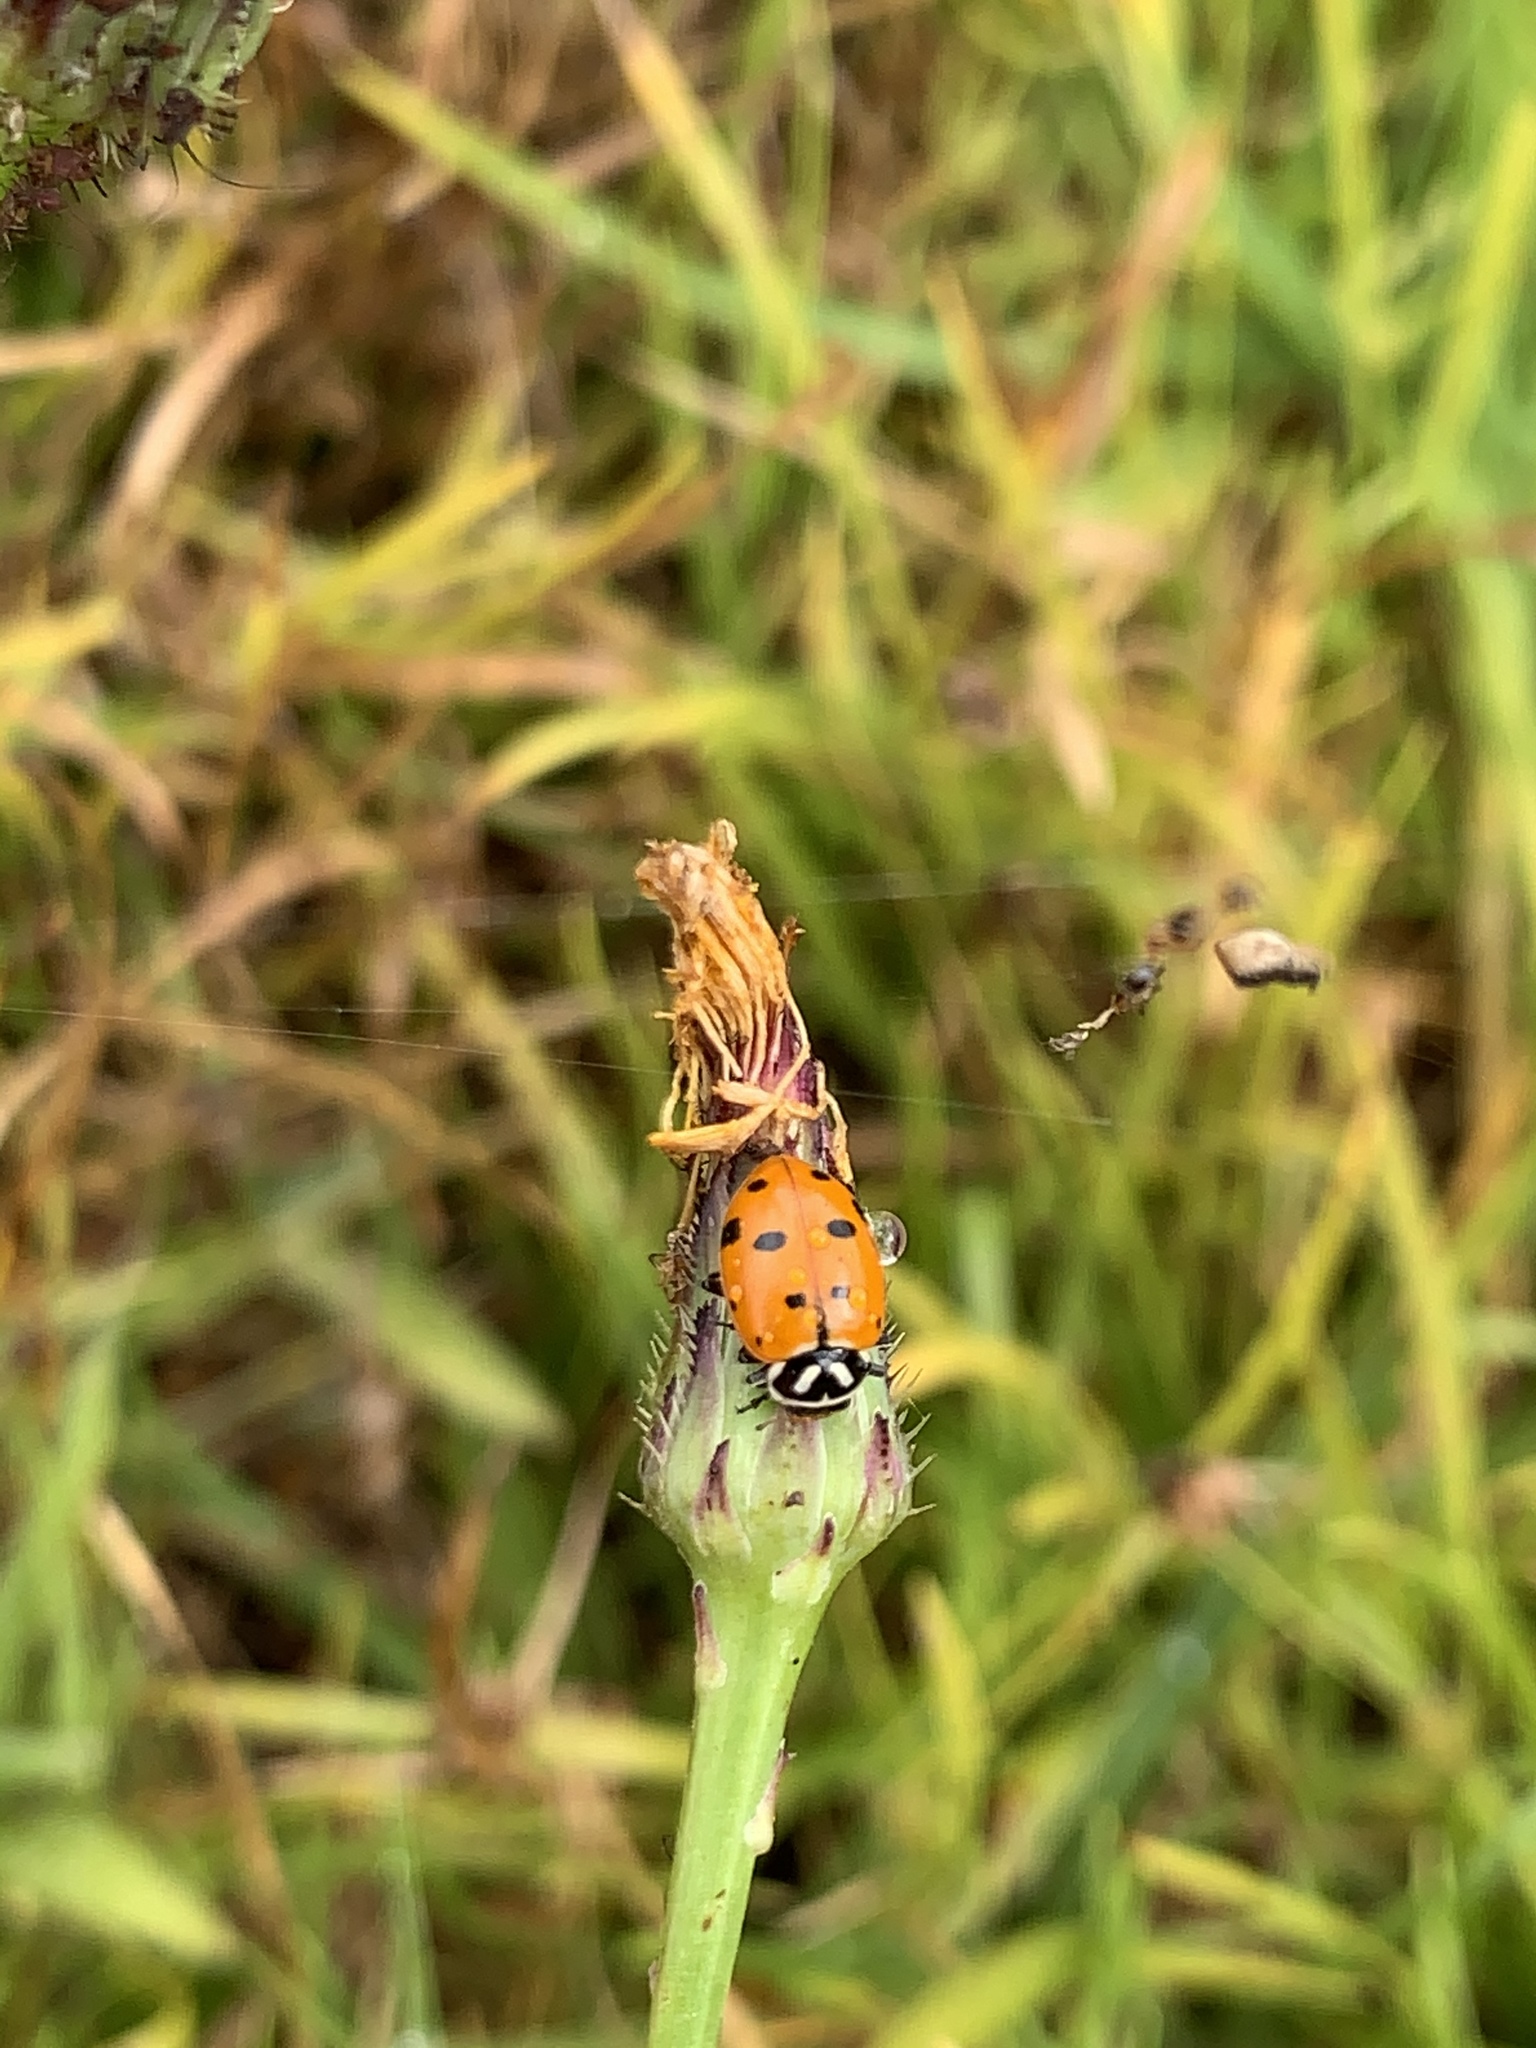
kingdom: Animalia
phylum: Arthropoda
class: Insecta
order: Coleoptera
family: Coccinellidae
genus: Hippodamia
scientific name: Hippodamia convergens
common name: Convergent lady beetle
